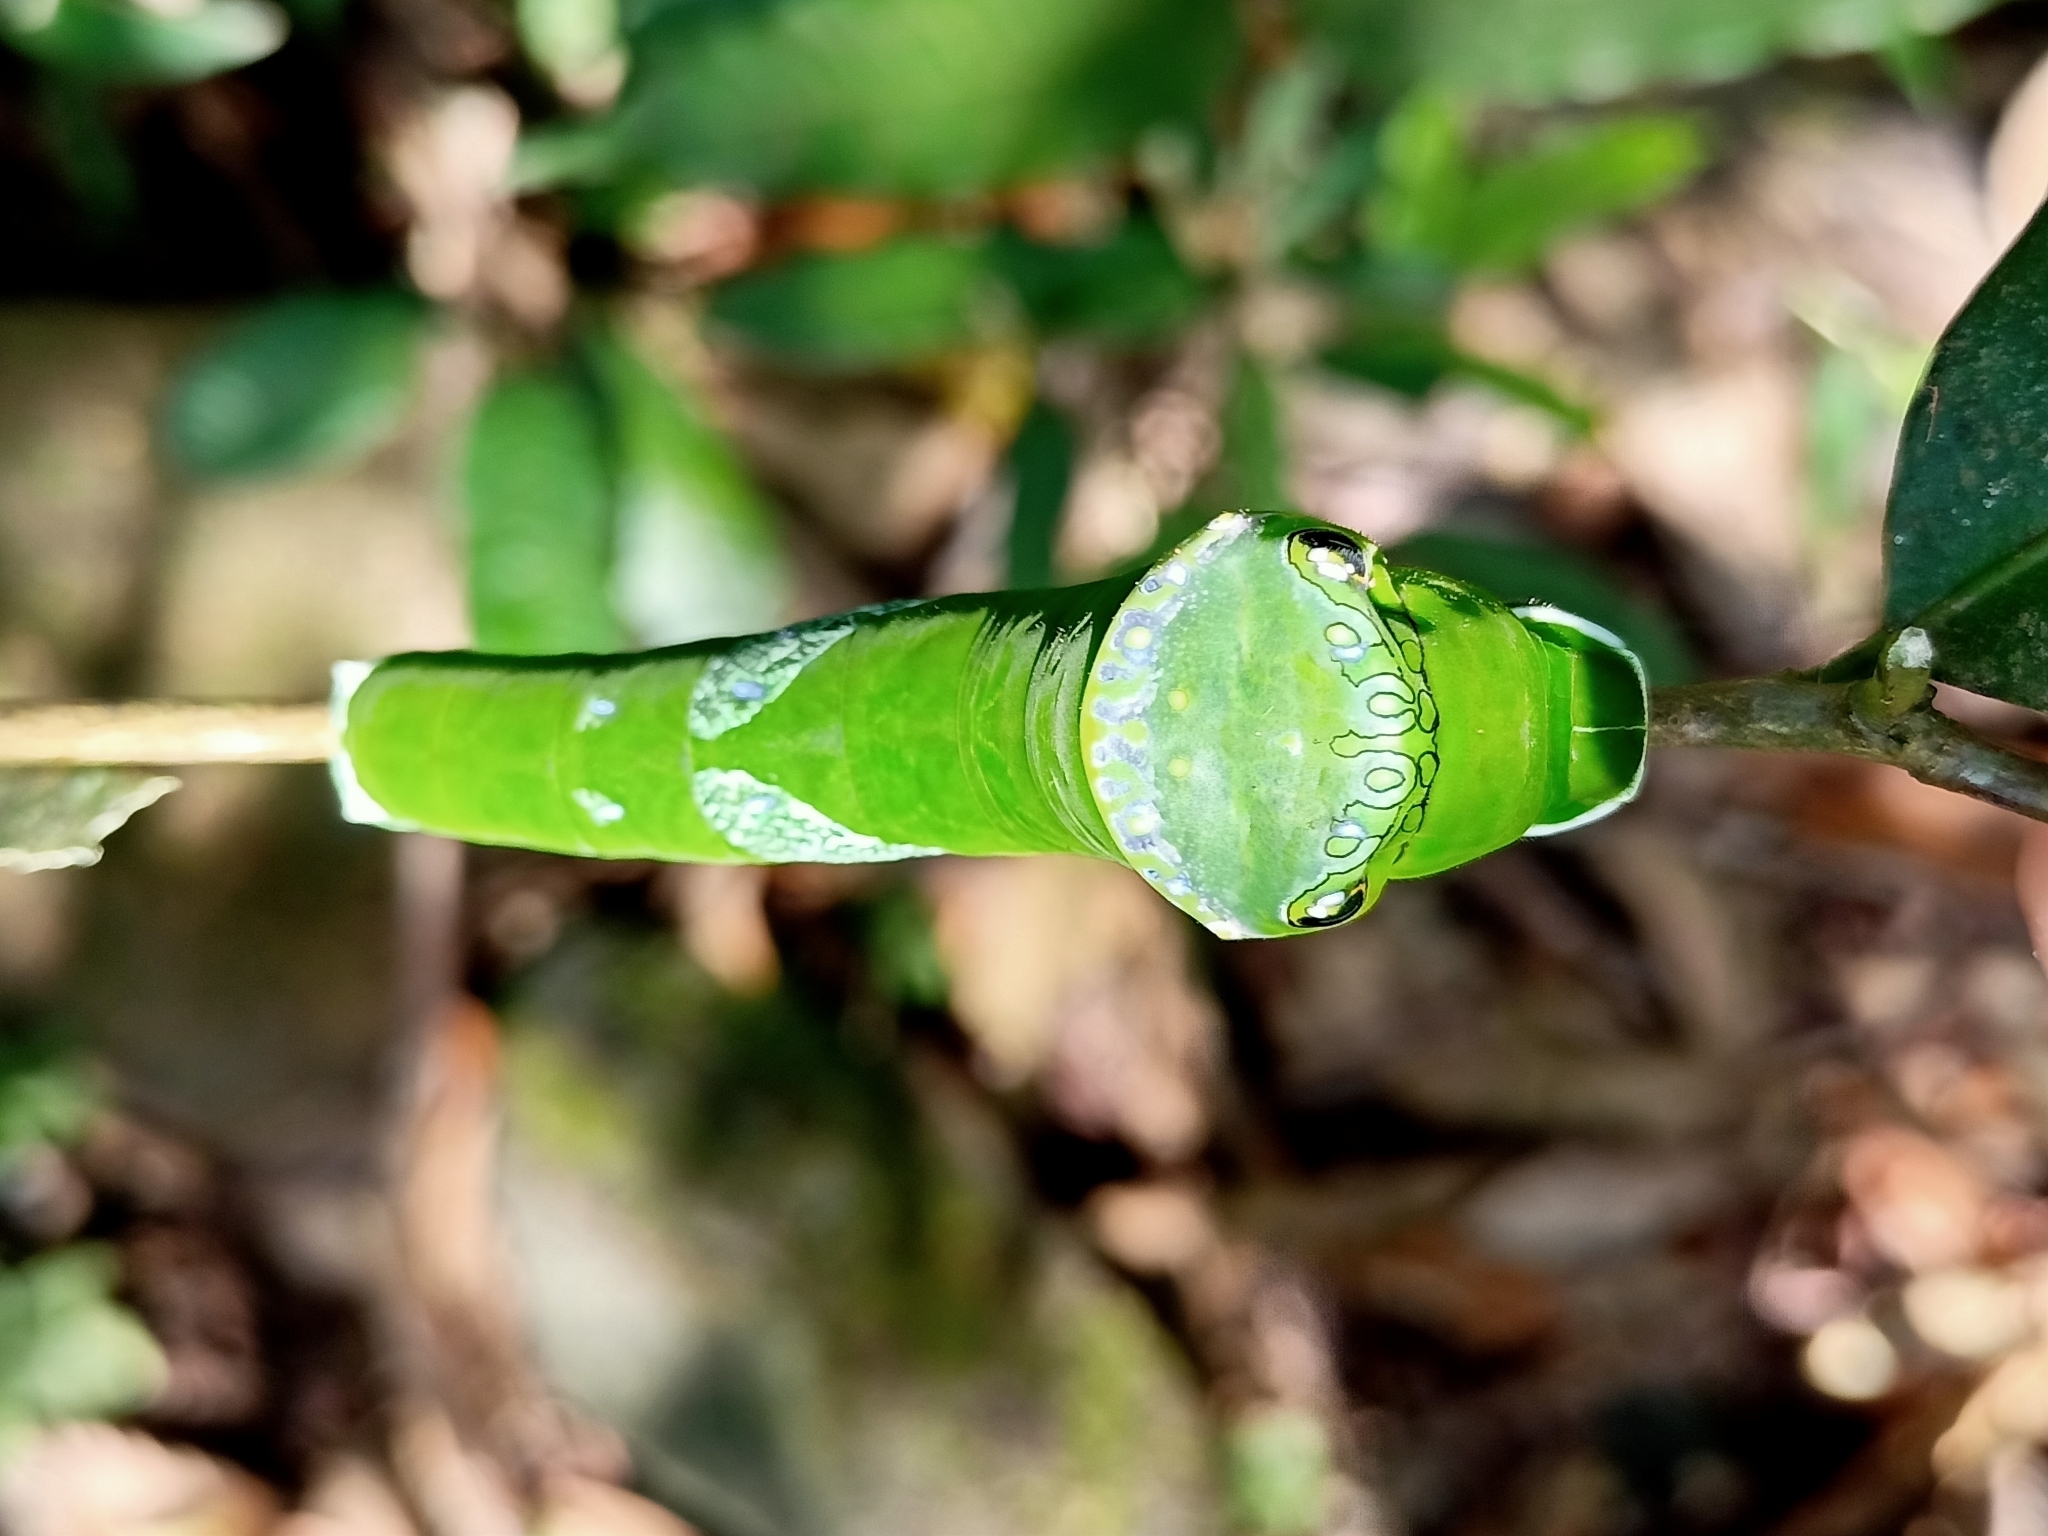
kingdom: Animalia
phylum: Arthropoda
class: Insecta
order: Lepidoptera
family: Papilionidae
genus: Papilio
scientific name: Papilio memnon
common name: Great mormon
